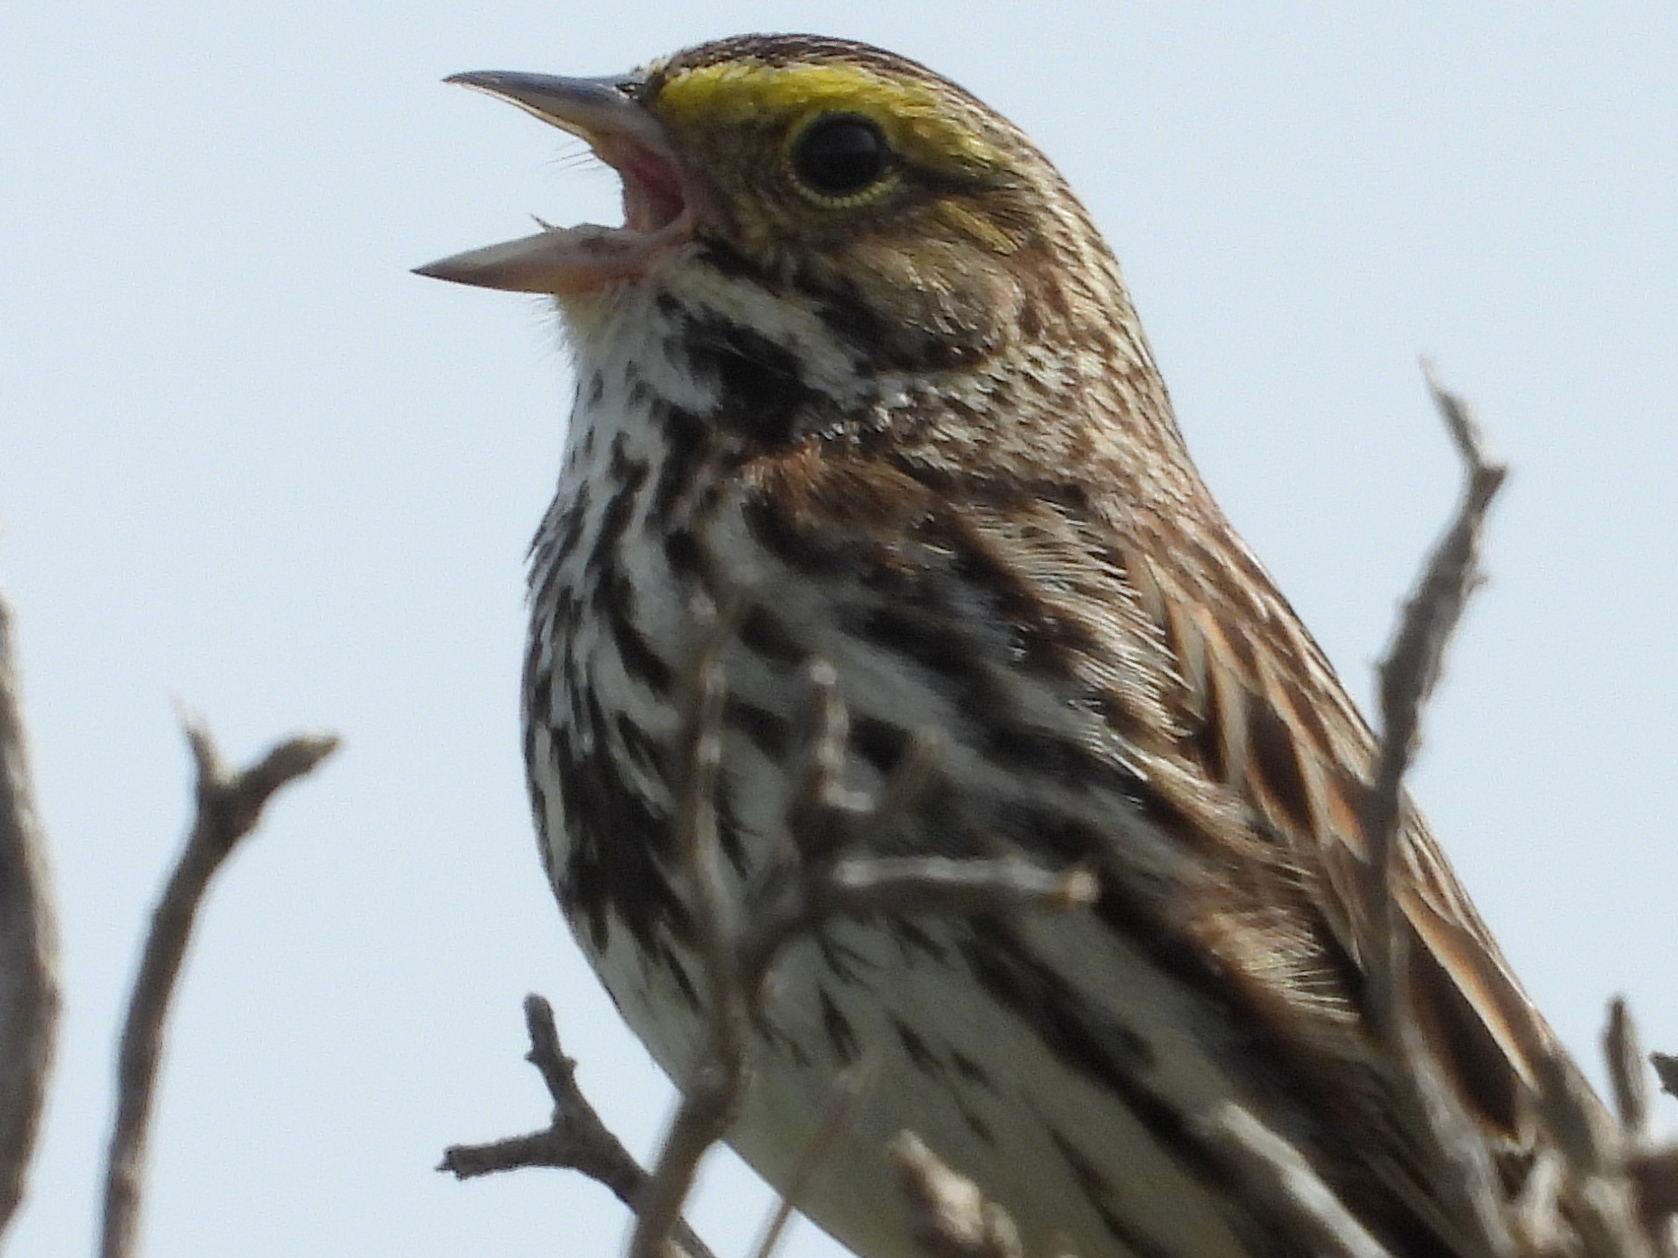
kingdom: Animalia
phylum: Chordata
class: Aves
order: Passeriformes
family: Passerellidae
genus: Passerculus
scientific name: Passerculus sandwichensis
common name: Savannah sparrow
